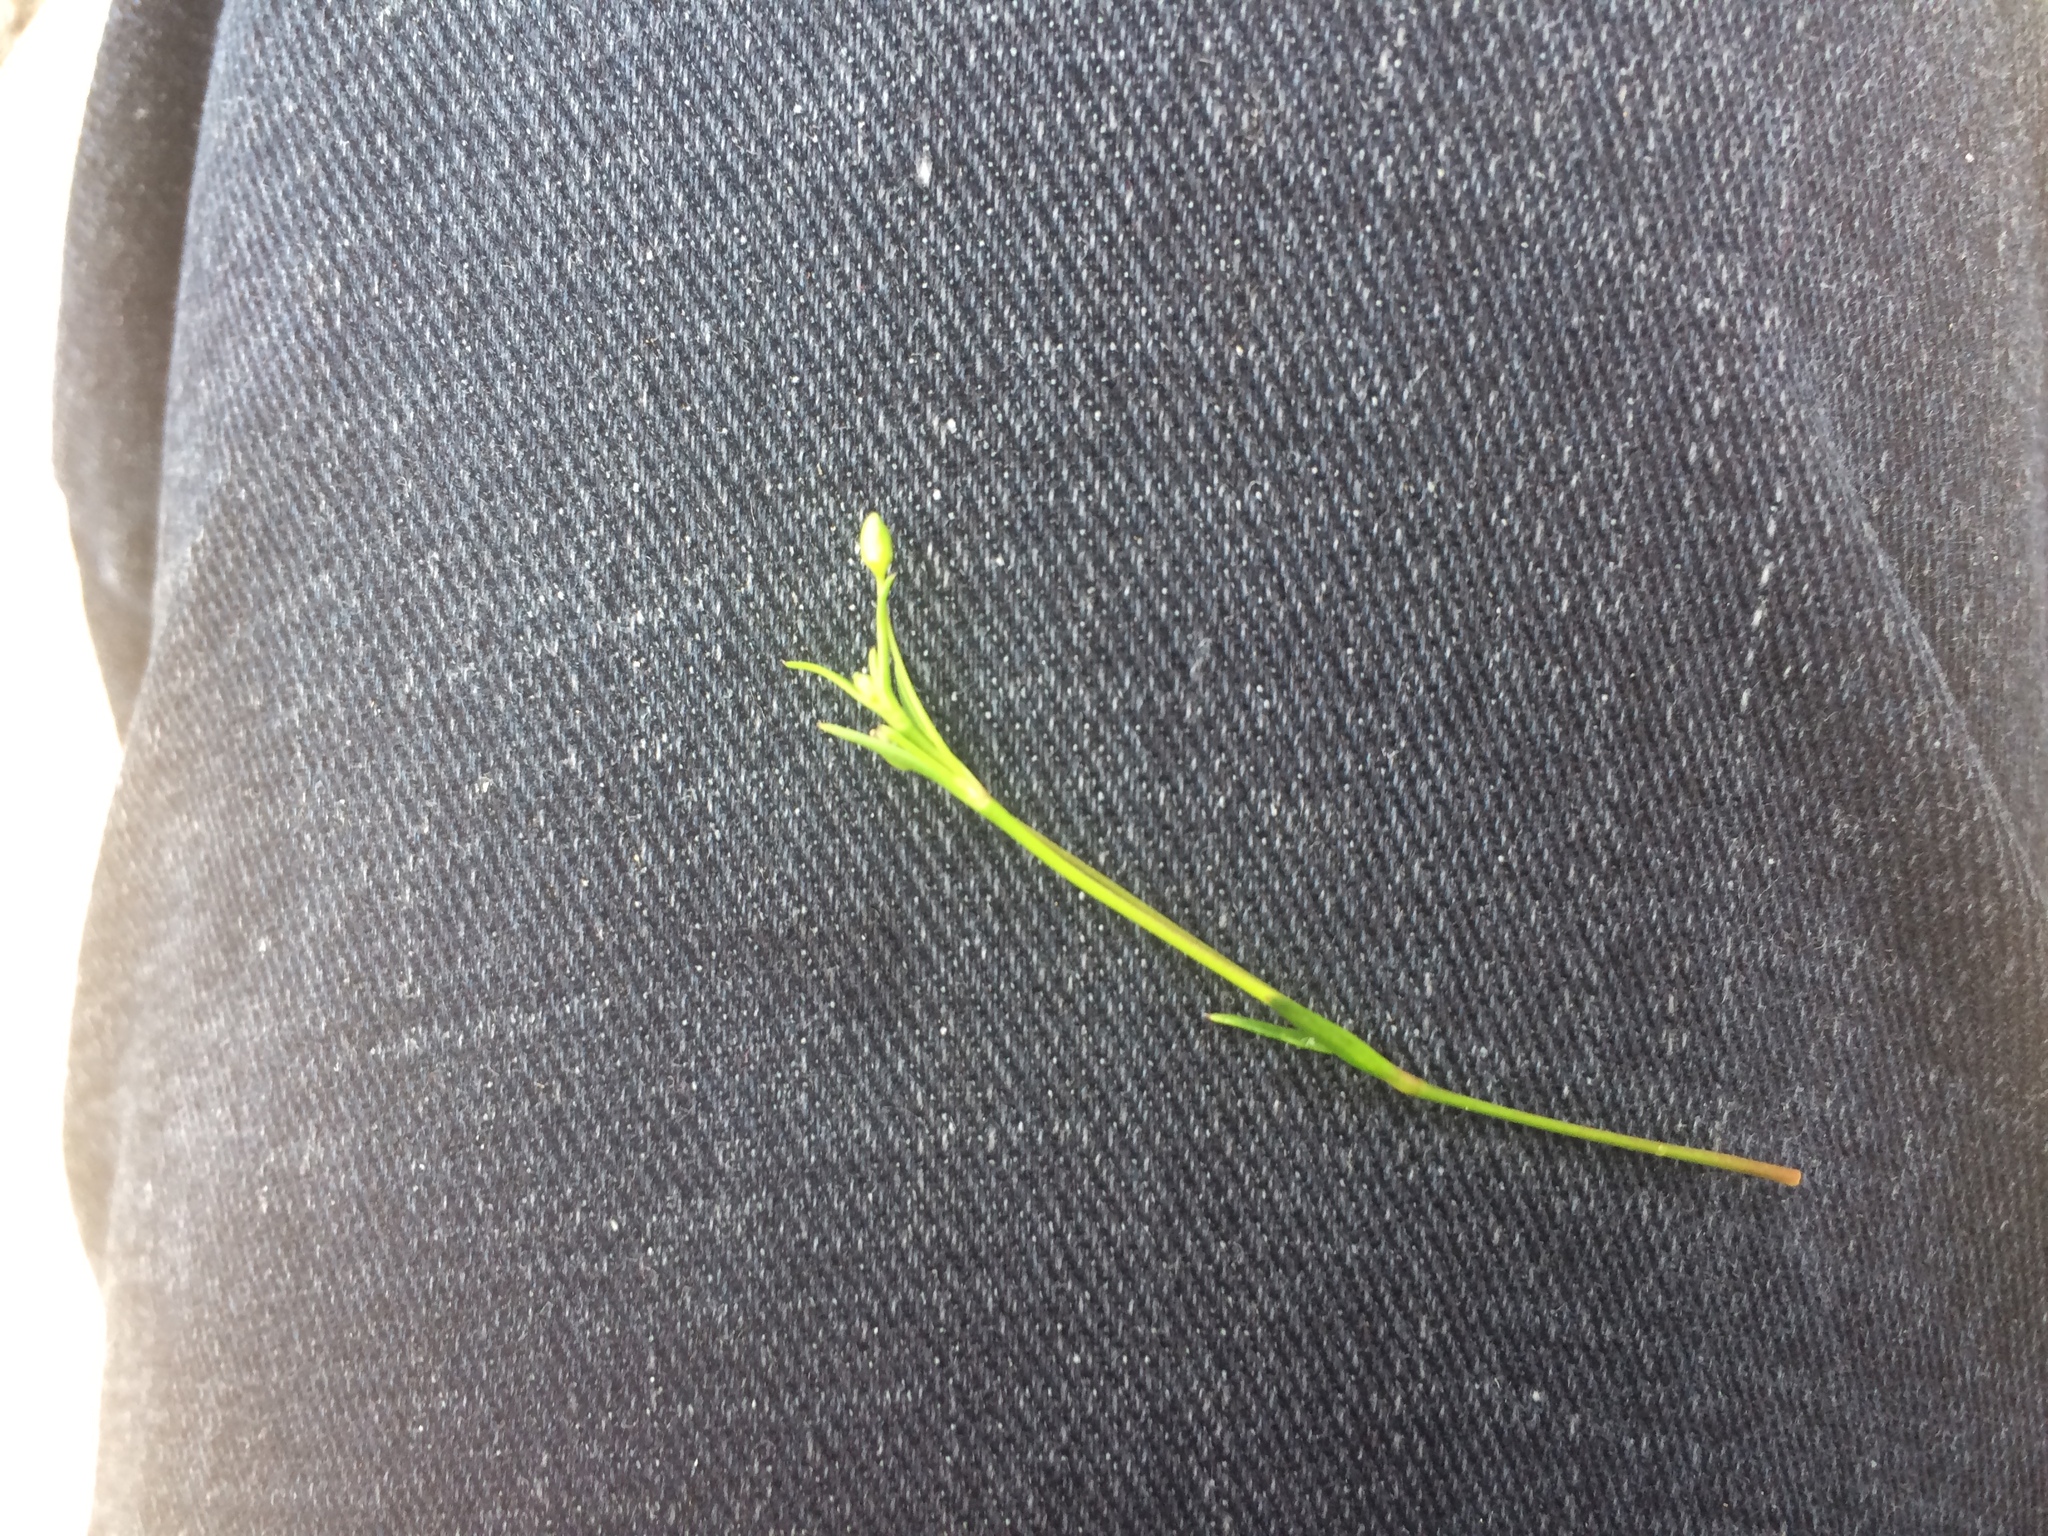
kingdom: Plantae
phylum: Tracheophyta
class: Magnoliopsida
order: Caryophyllales
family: Caryophyllaceae
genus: Sagina
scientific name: Sagina decumbens
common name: Decumbent pearlwort
